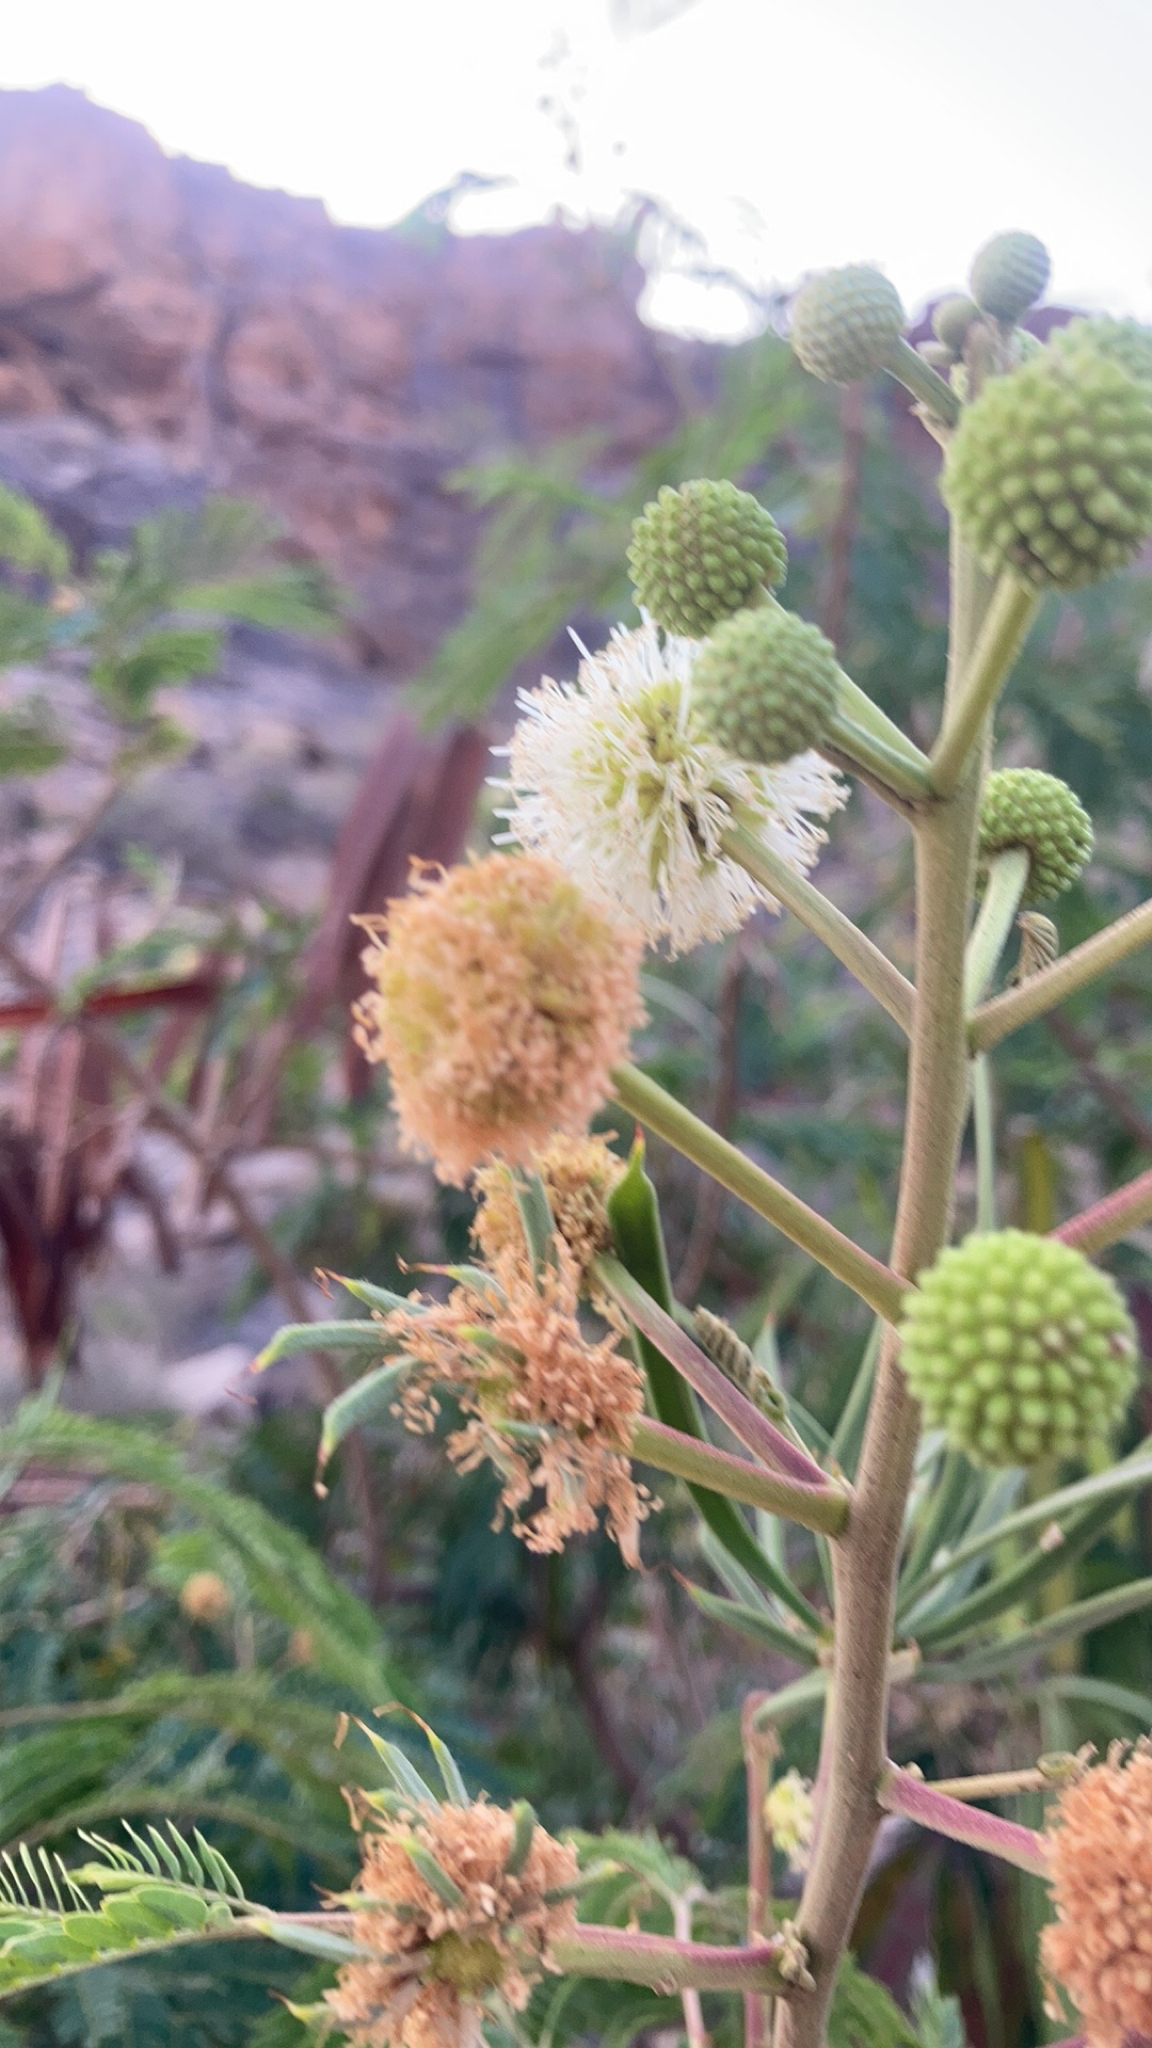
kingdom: Plantae
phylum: Tracheophyta
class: Magnoliopsida
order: Fabales
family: Fabaceae
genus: Leucaena
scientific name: Leucaena leucocephala
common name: White leadtree
